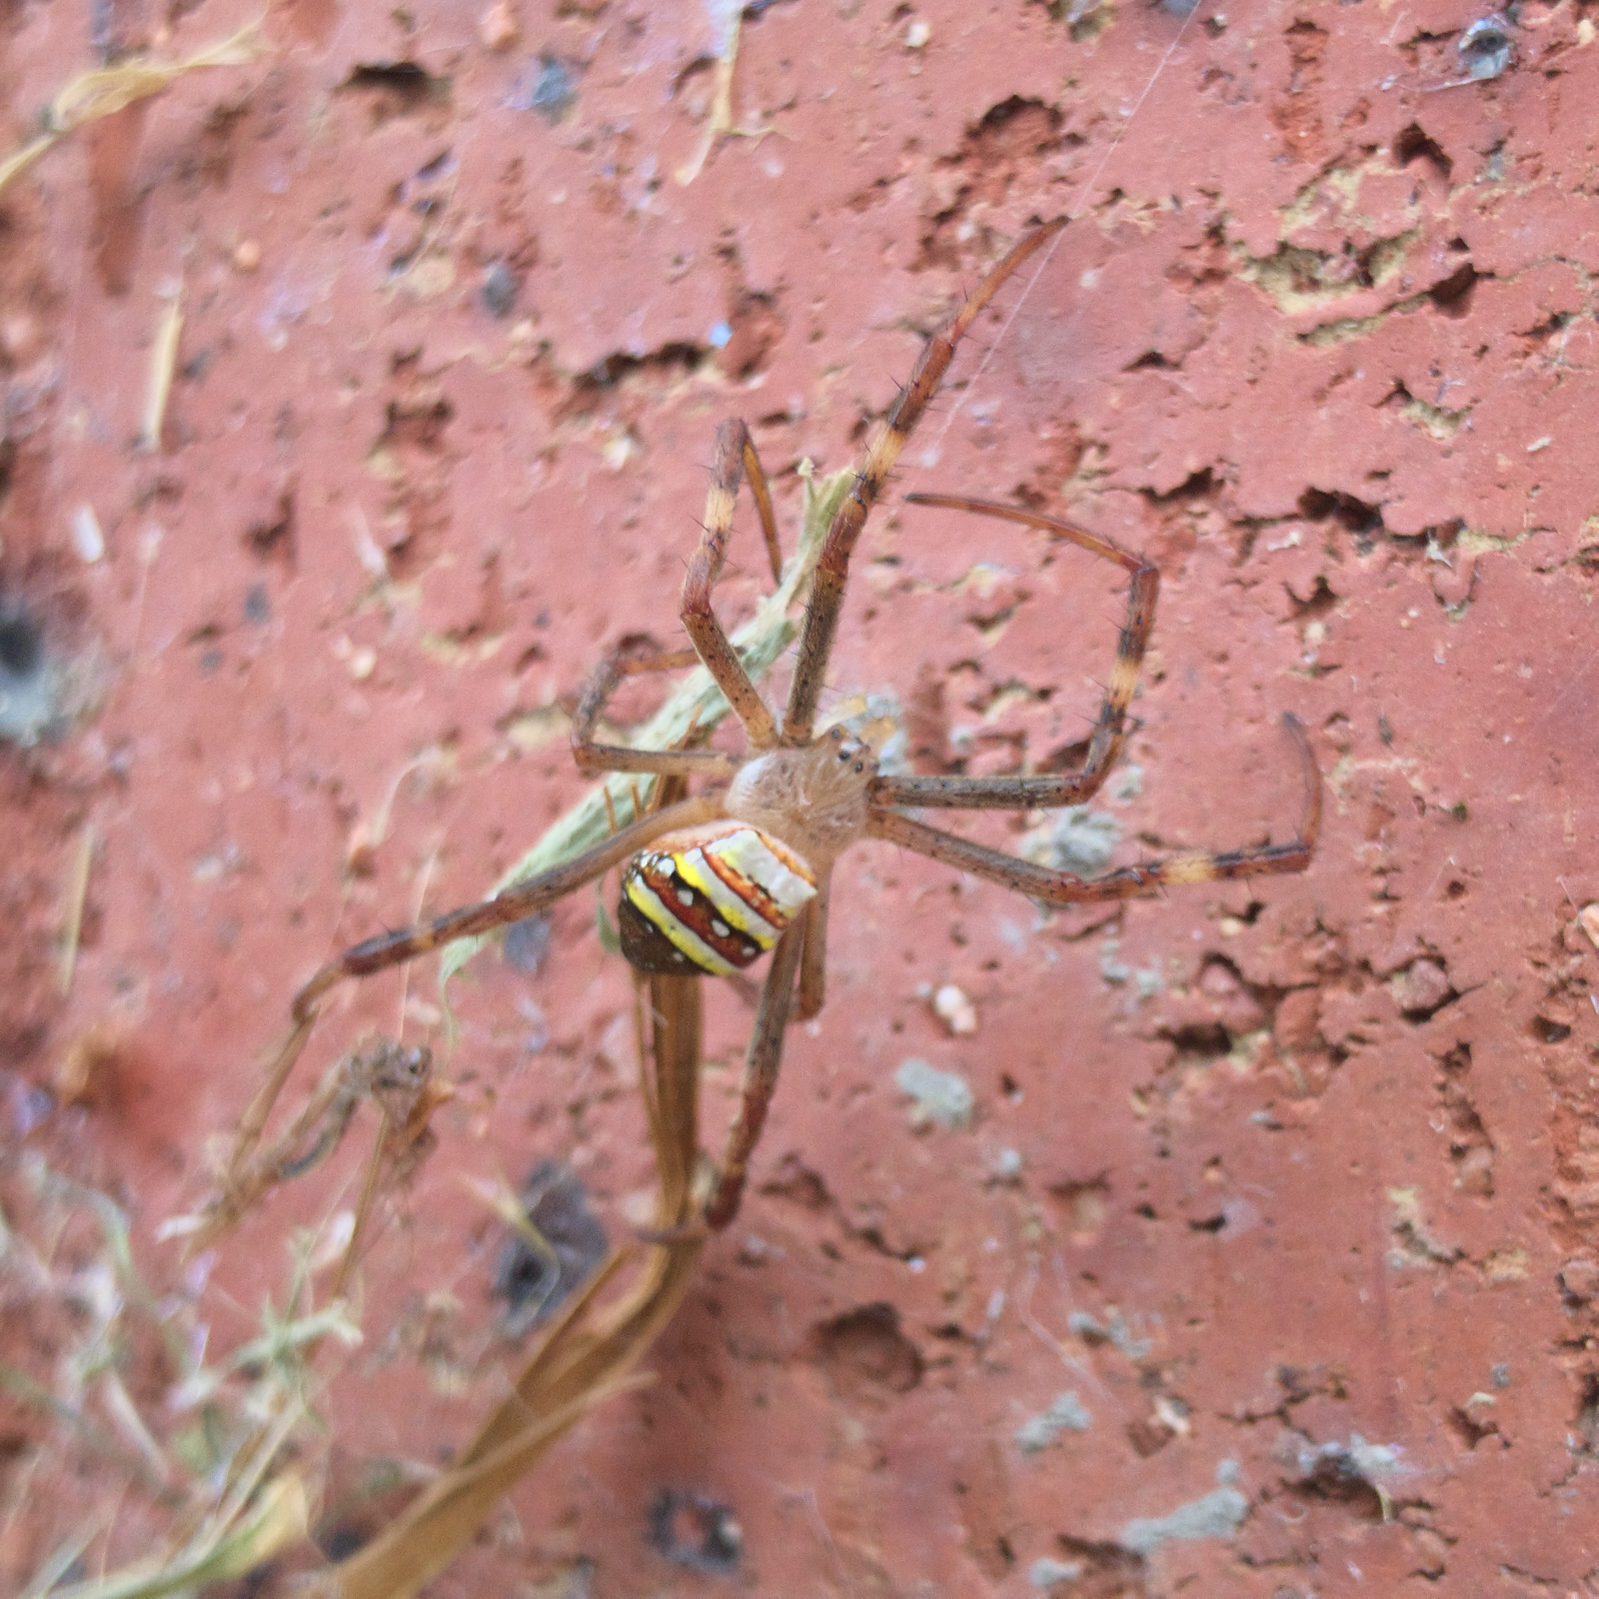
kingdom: Animalia
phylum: Arthropoda
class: Arachnida
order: Araneae
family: Araneidae
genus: Argiope
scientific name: Argiope keyserlingi
